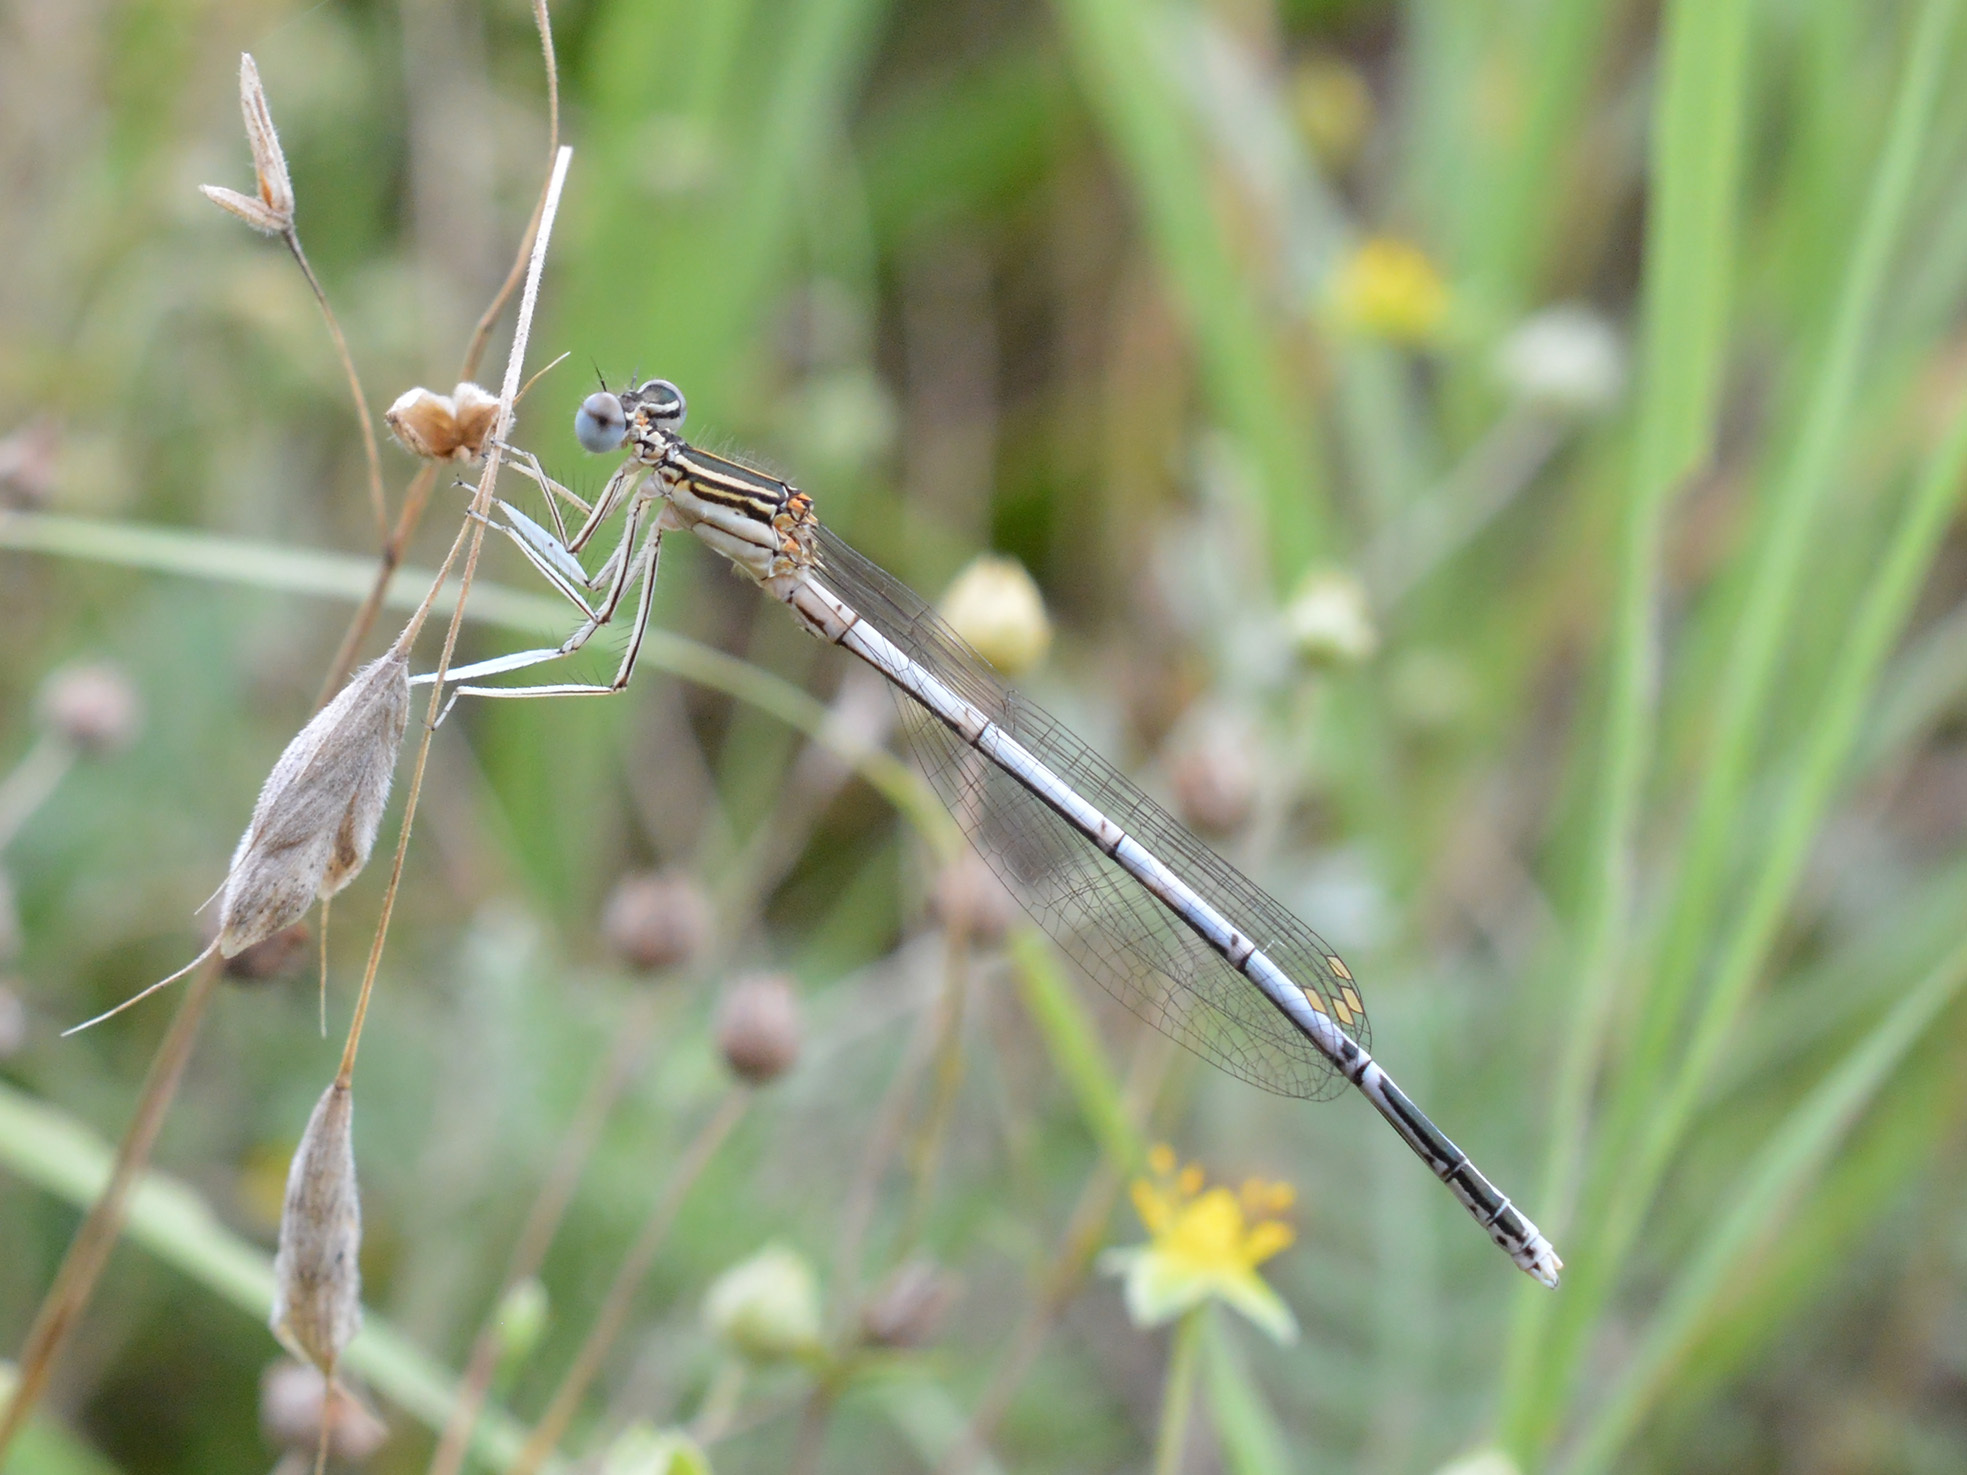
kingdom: Animalia
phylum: Arthropoda
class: Insecta
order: Odonata
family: Platycnemididae
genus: Platycnemis
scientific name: Platycnemis pennipes
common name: White-legged damselfly
